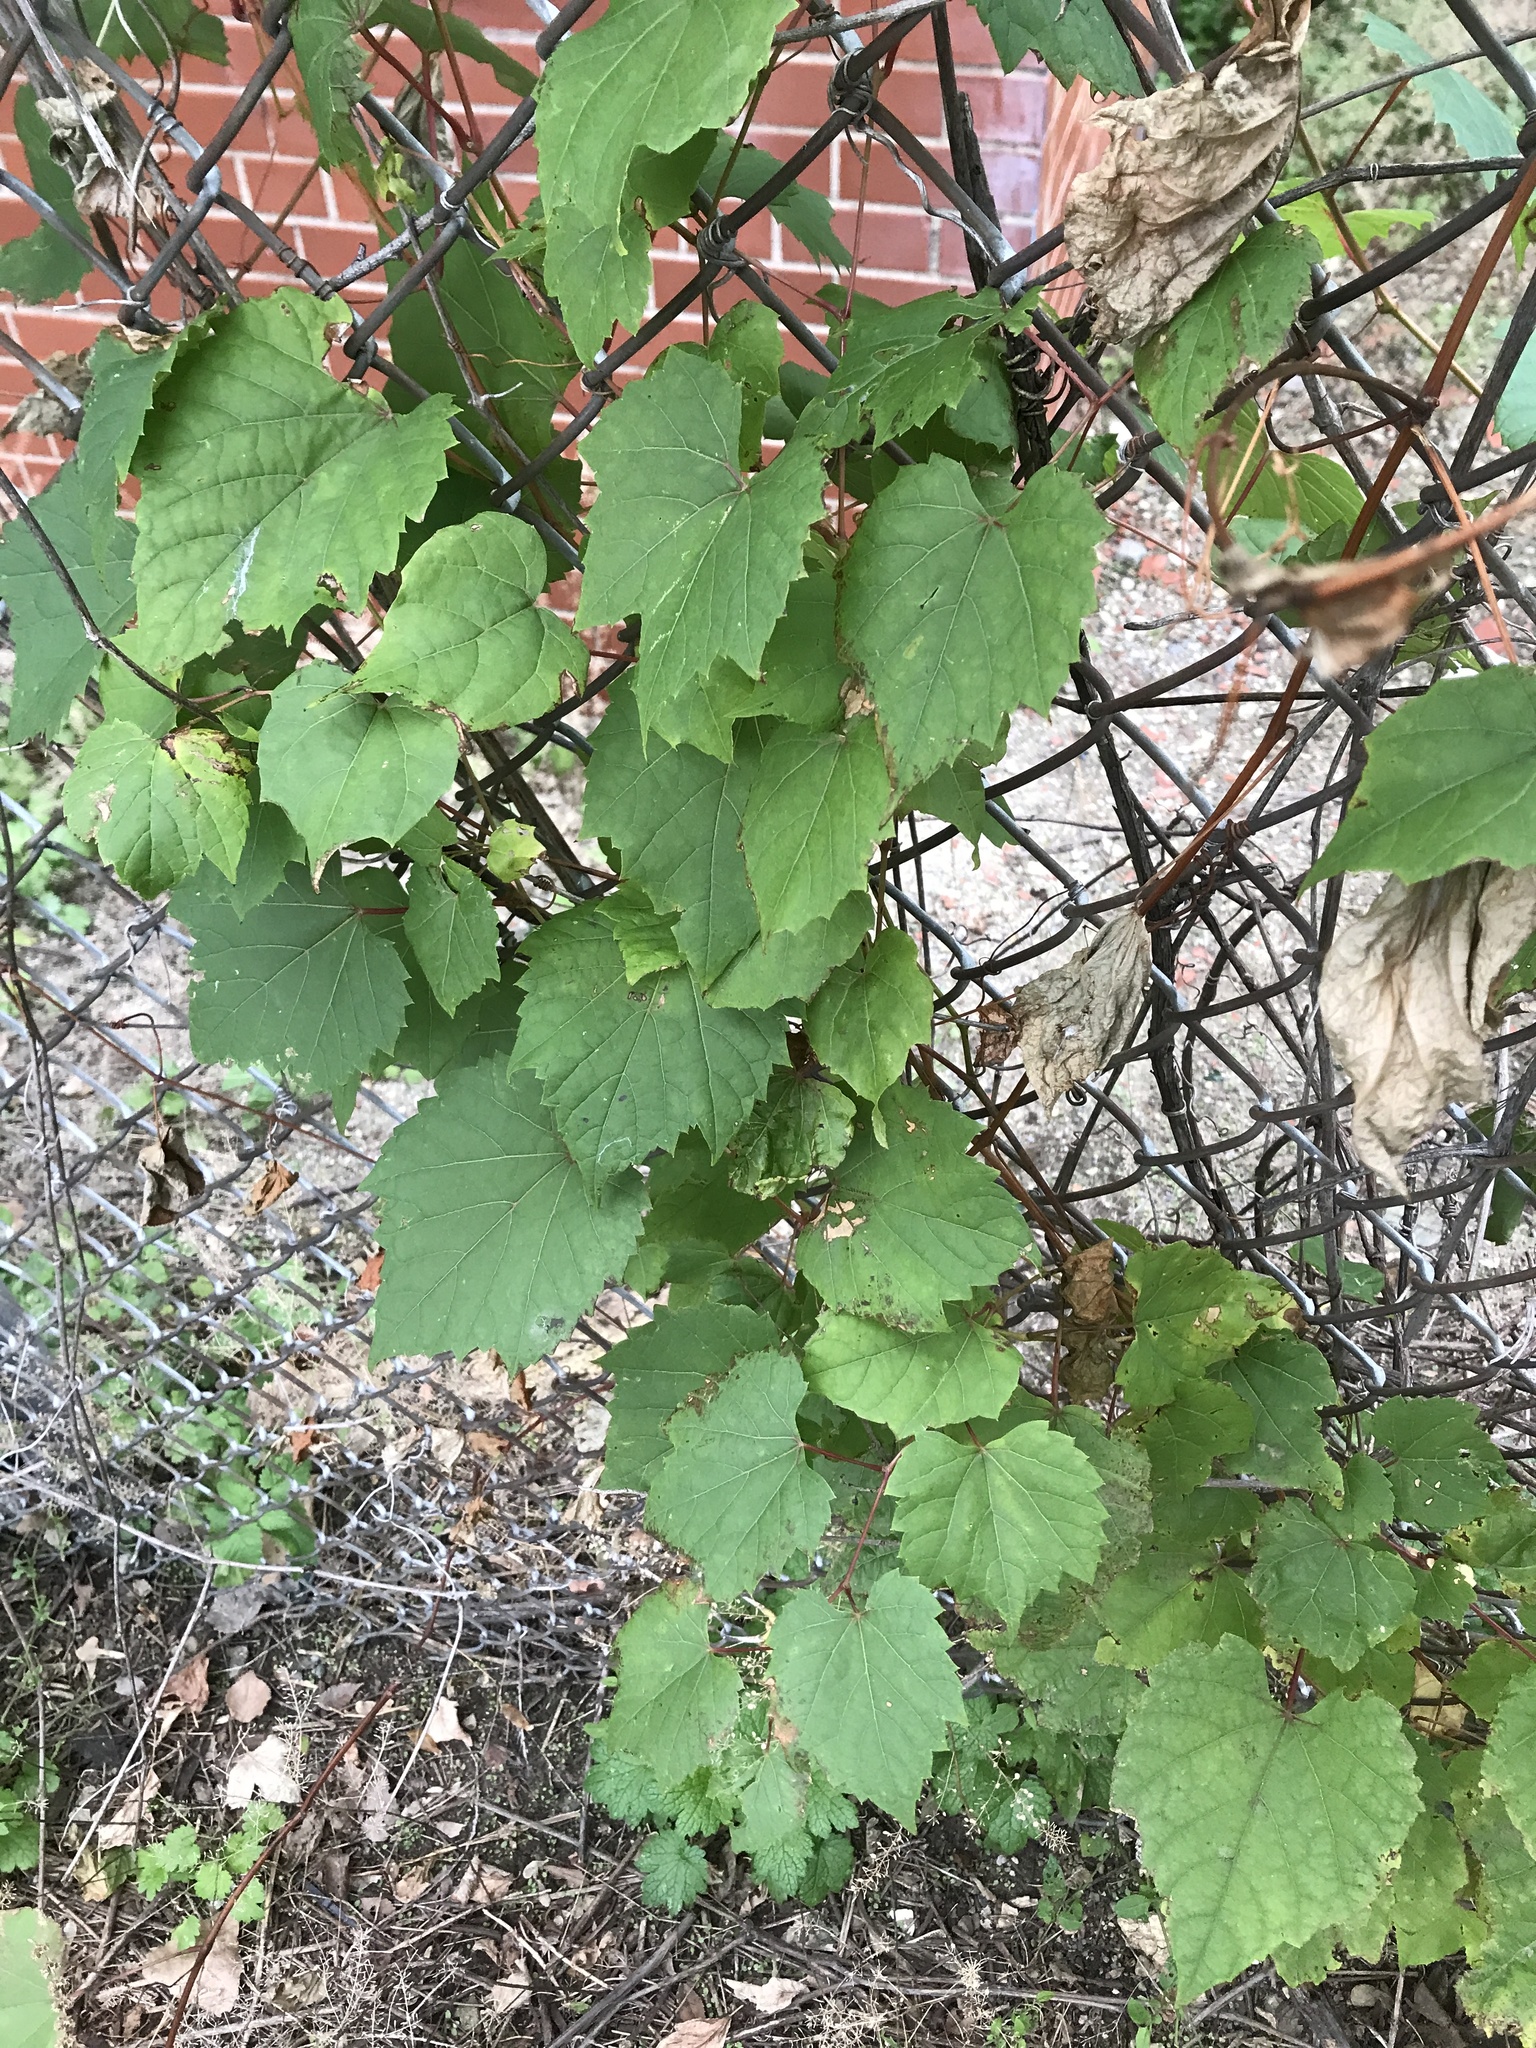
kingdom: Plantae
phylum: Tracheophyta
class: Magnoliopsida
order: Vitales
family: Vitaceae
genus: Vitis
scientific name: Vitis riparia
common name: Frost grape
